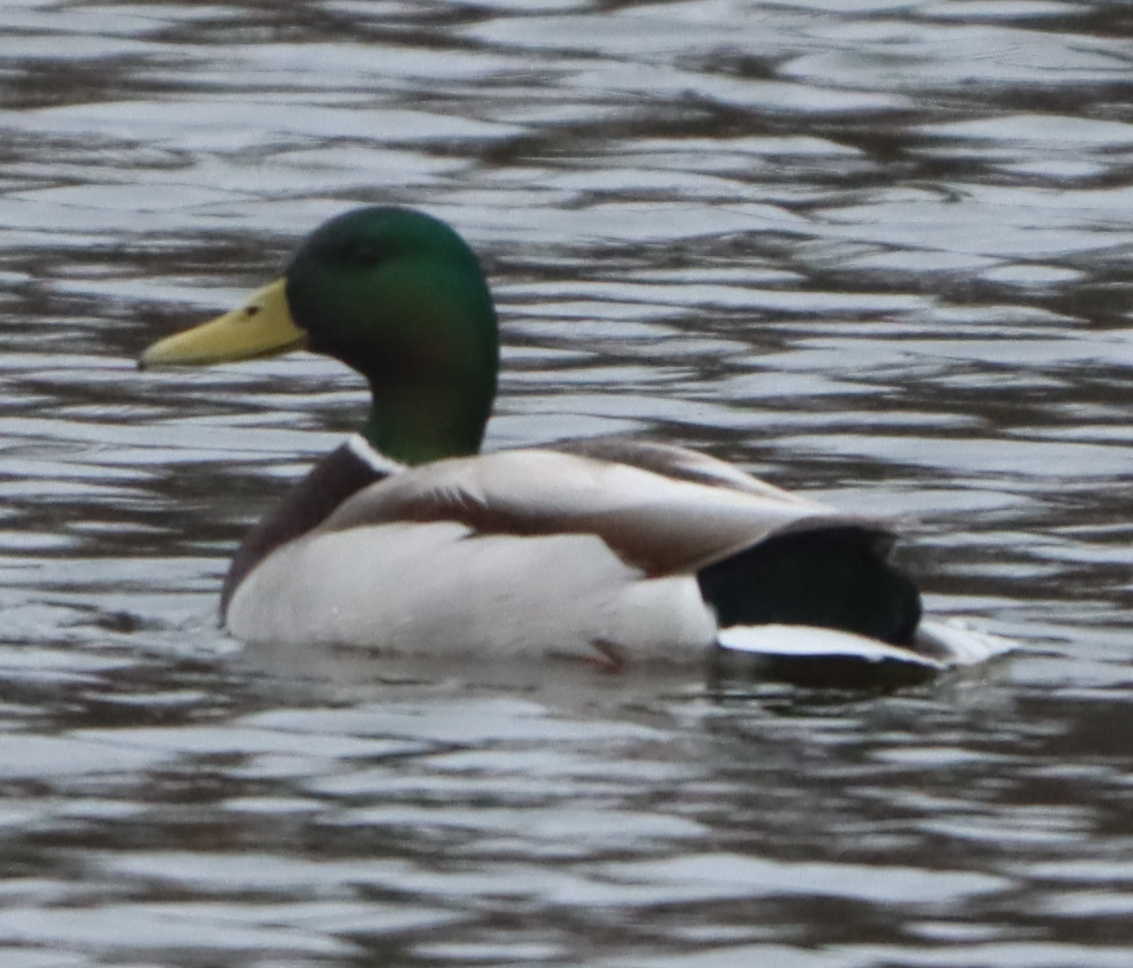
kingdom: Animalia
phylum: Chordata
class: Aves
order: Anseriformes
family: Anatidae
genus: Anas
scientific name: Anas platyrhynchos
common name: Mallard
